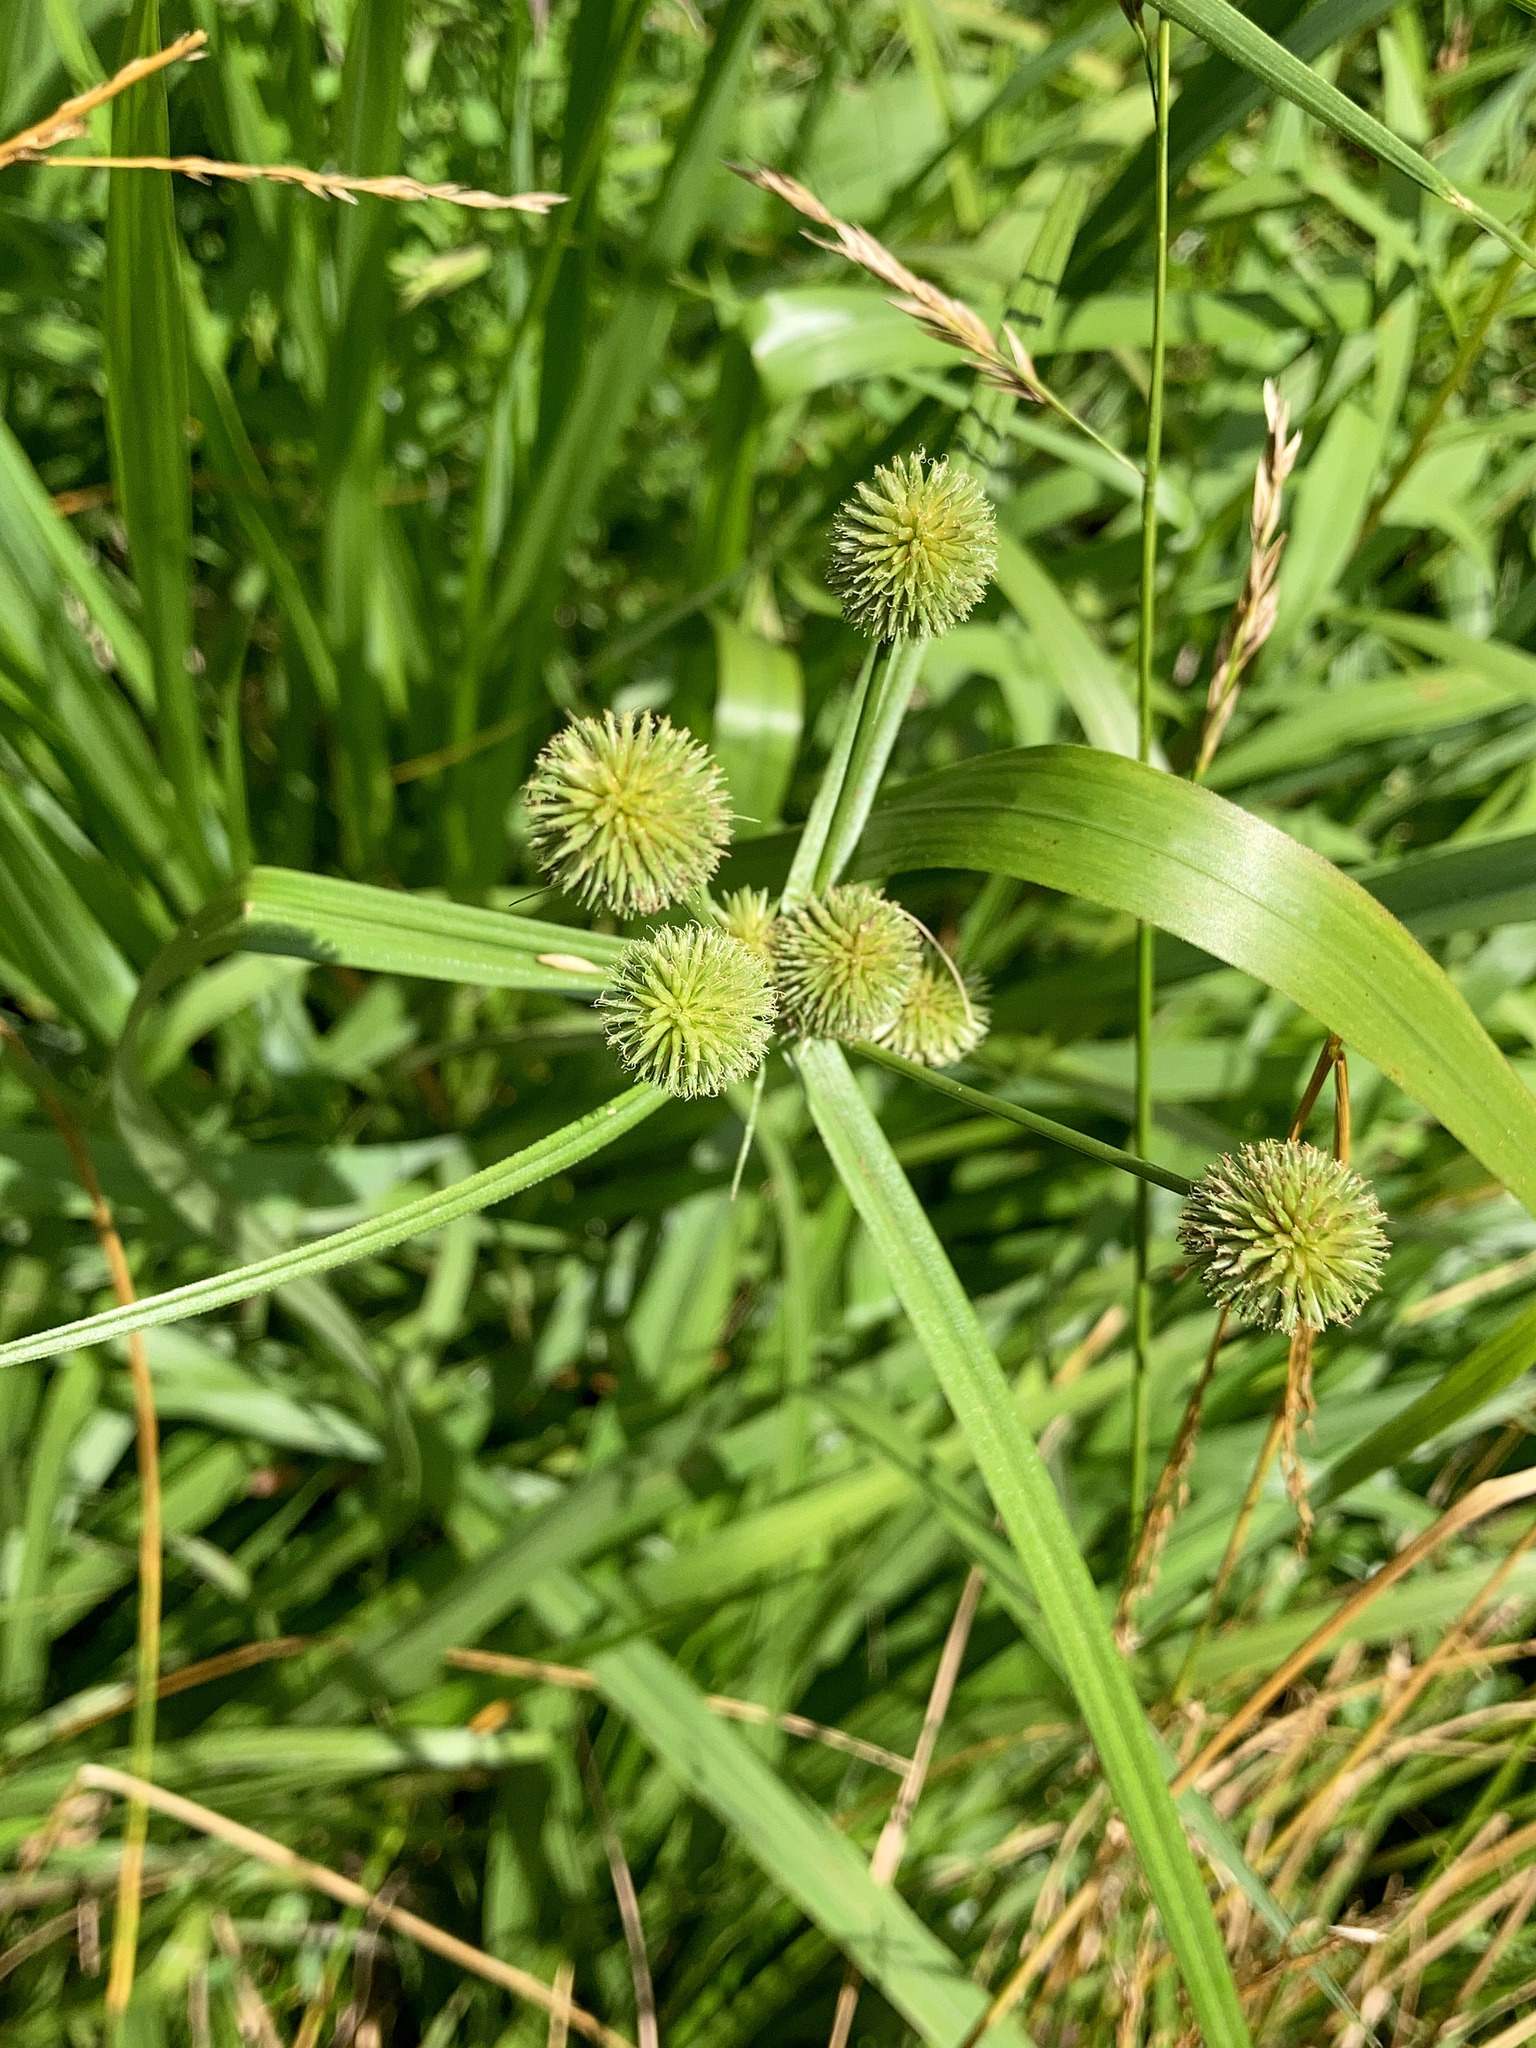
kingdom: Plantae
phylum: Tracheophyta
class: Liliopsida
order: Poales
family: Cyperaceae
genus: Cyperus
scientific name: Cyperus echinatus
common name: Teasel sedge
